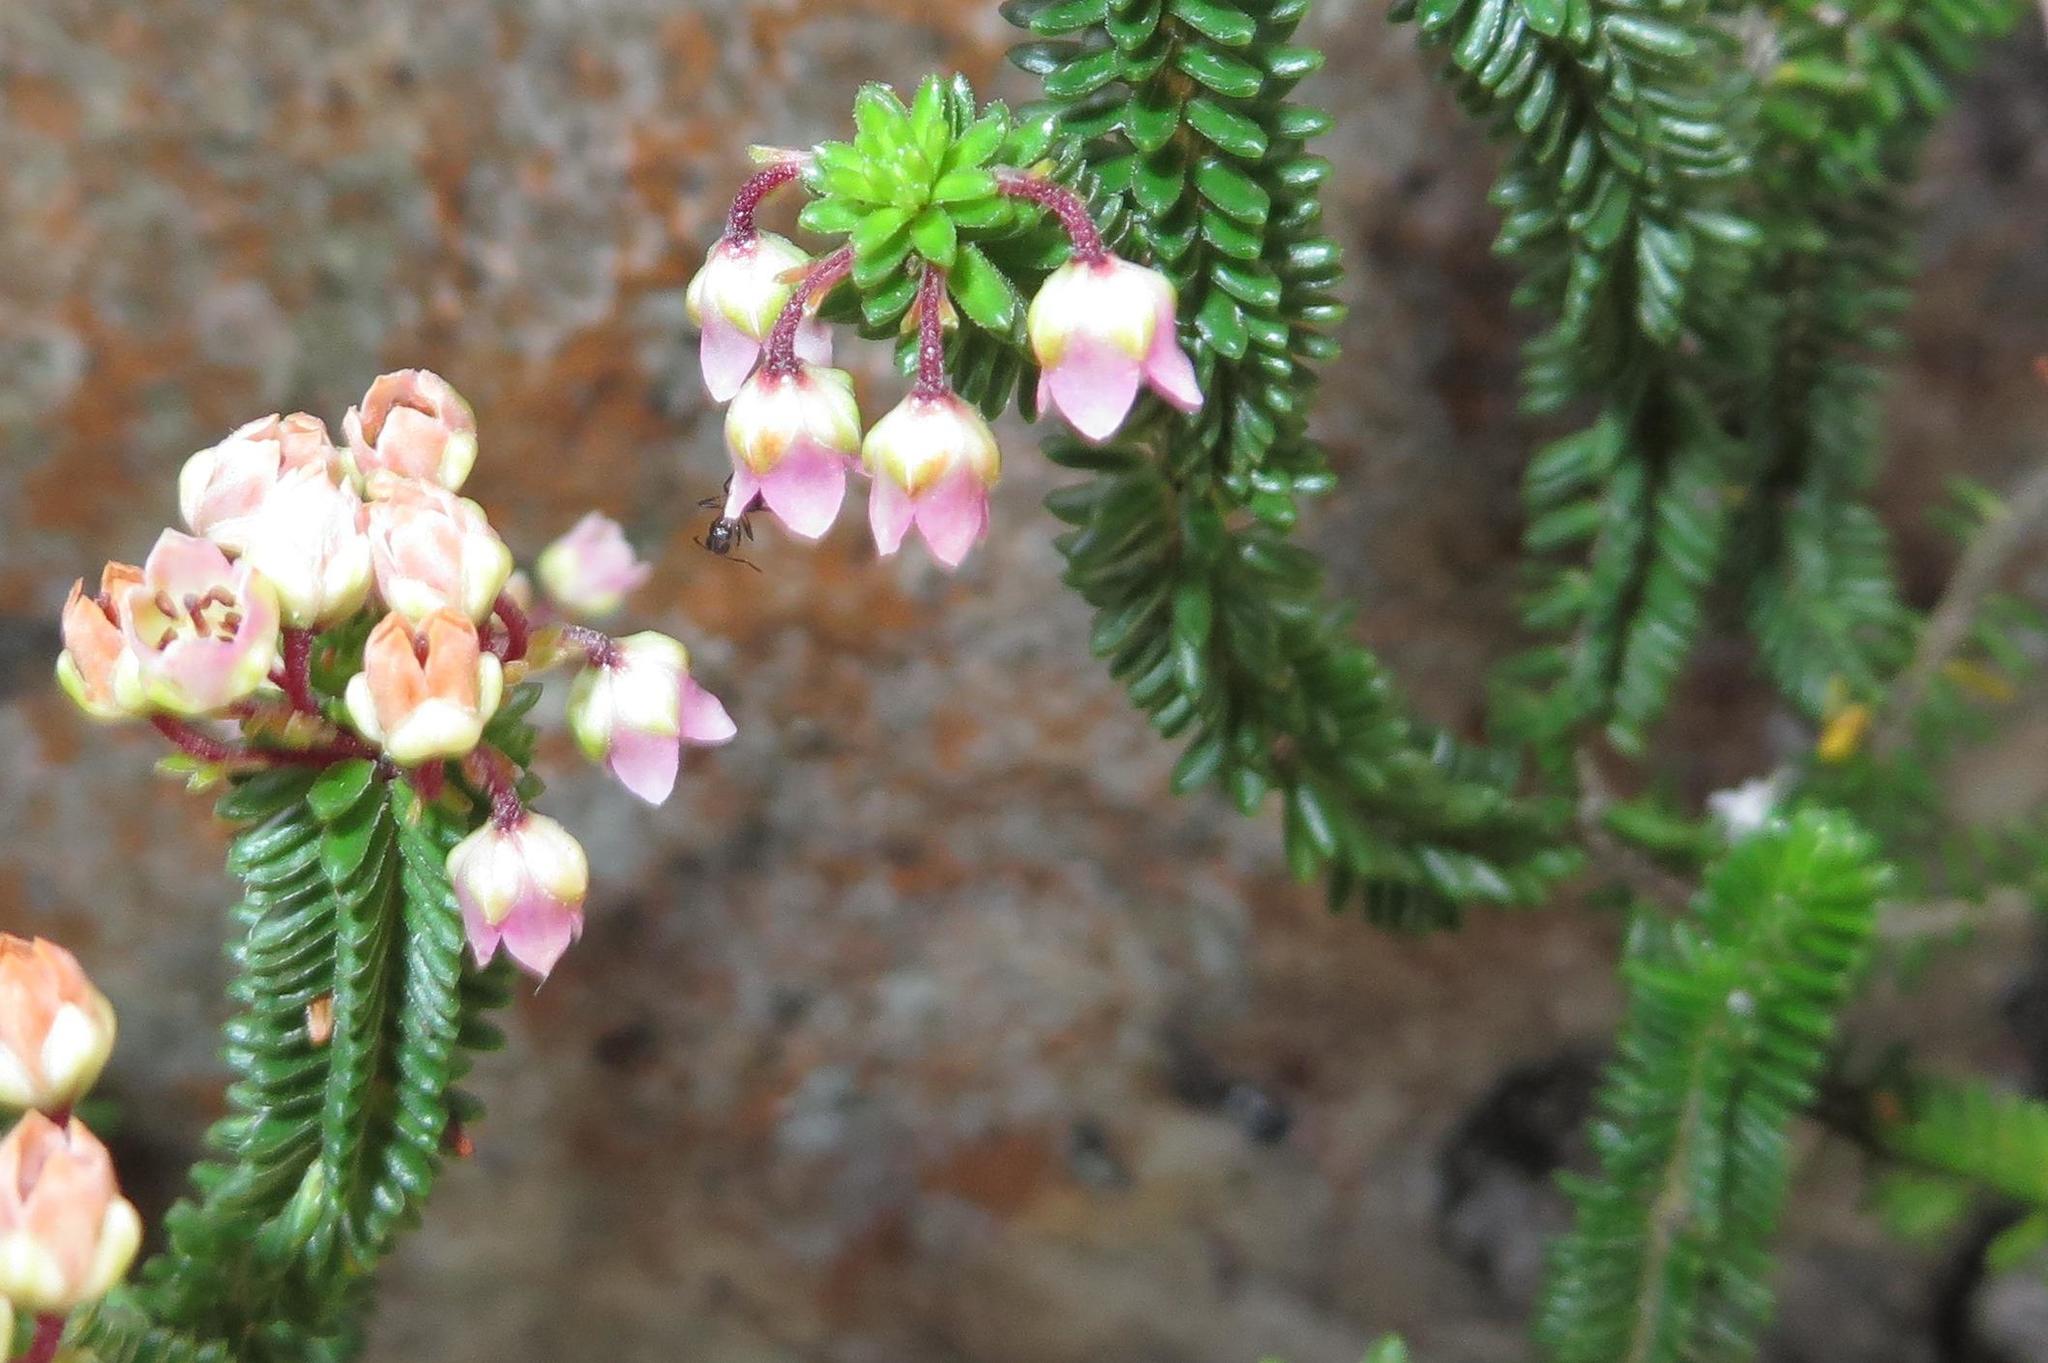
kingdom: Plantae
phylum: Tracheophyta
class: Magnoliopsida
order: Ericales
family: Ericaceae
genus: Erica
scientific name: Erica stokoei
